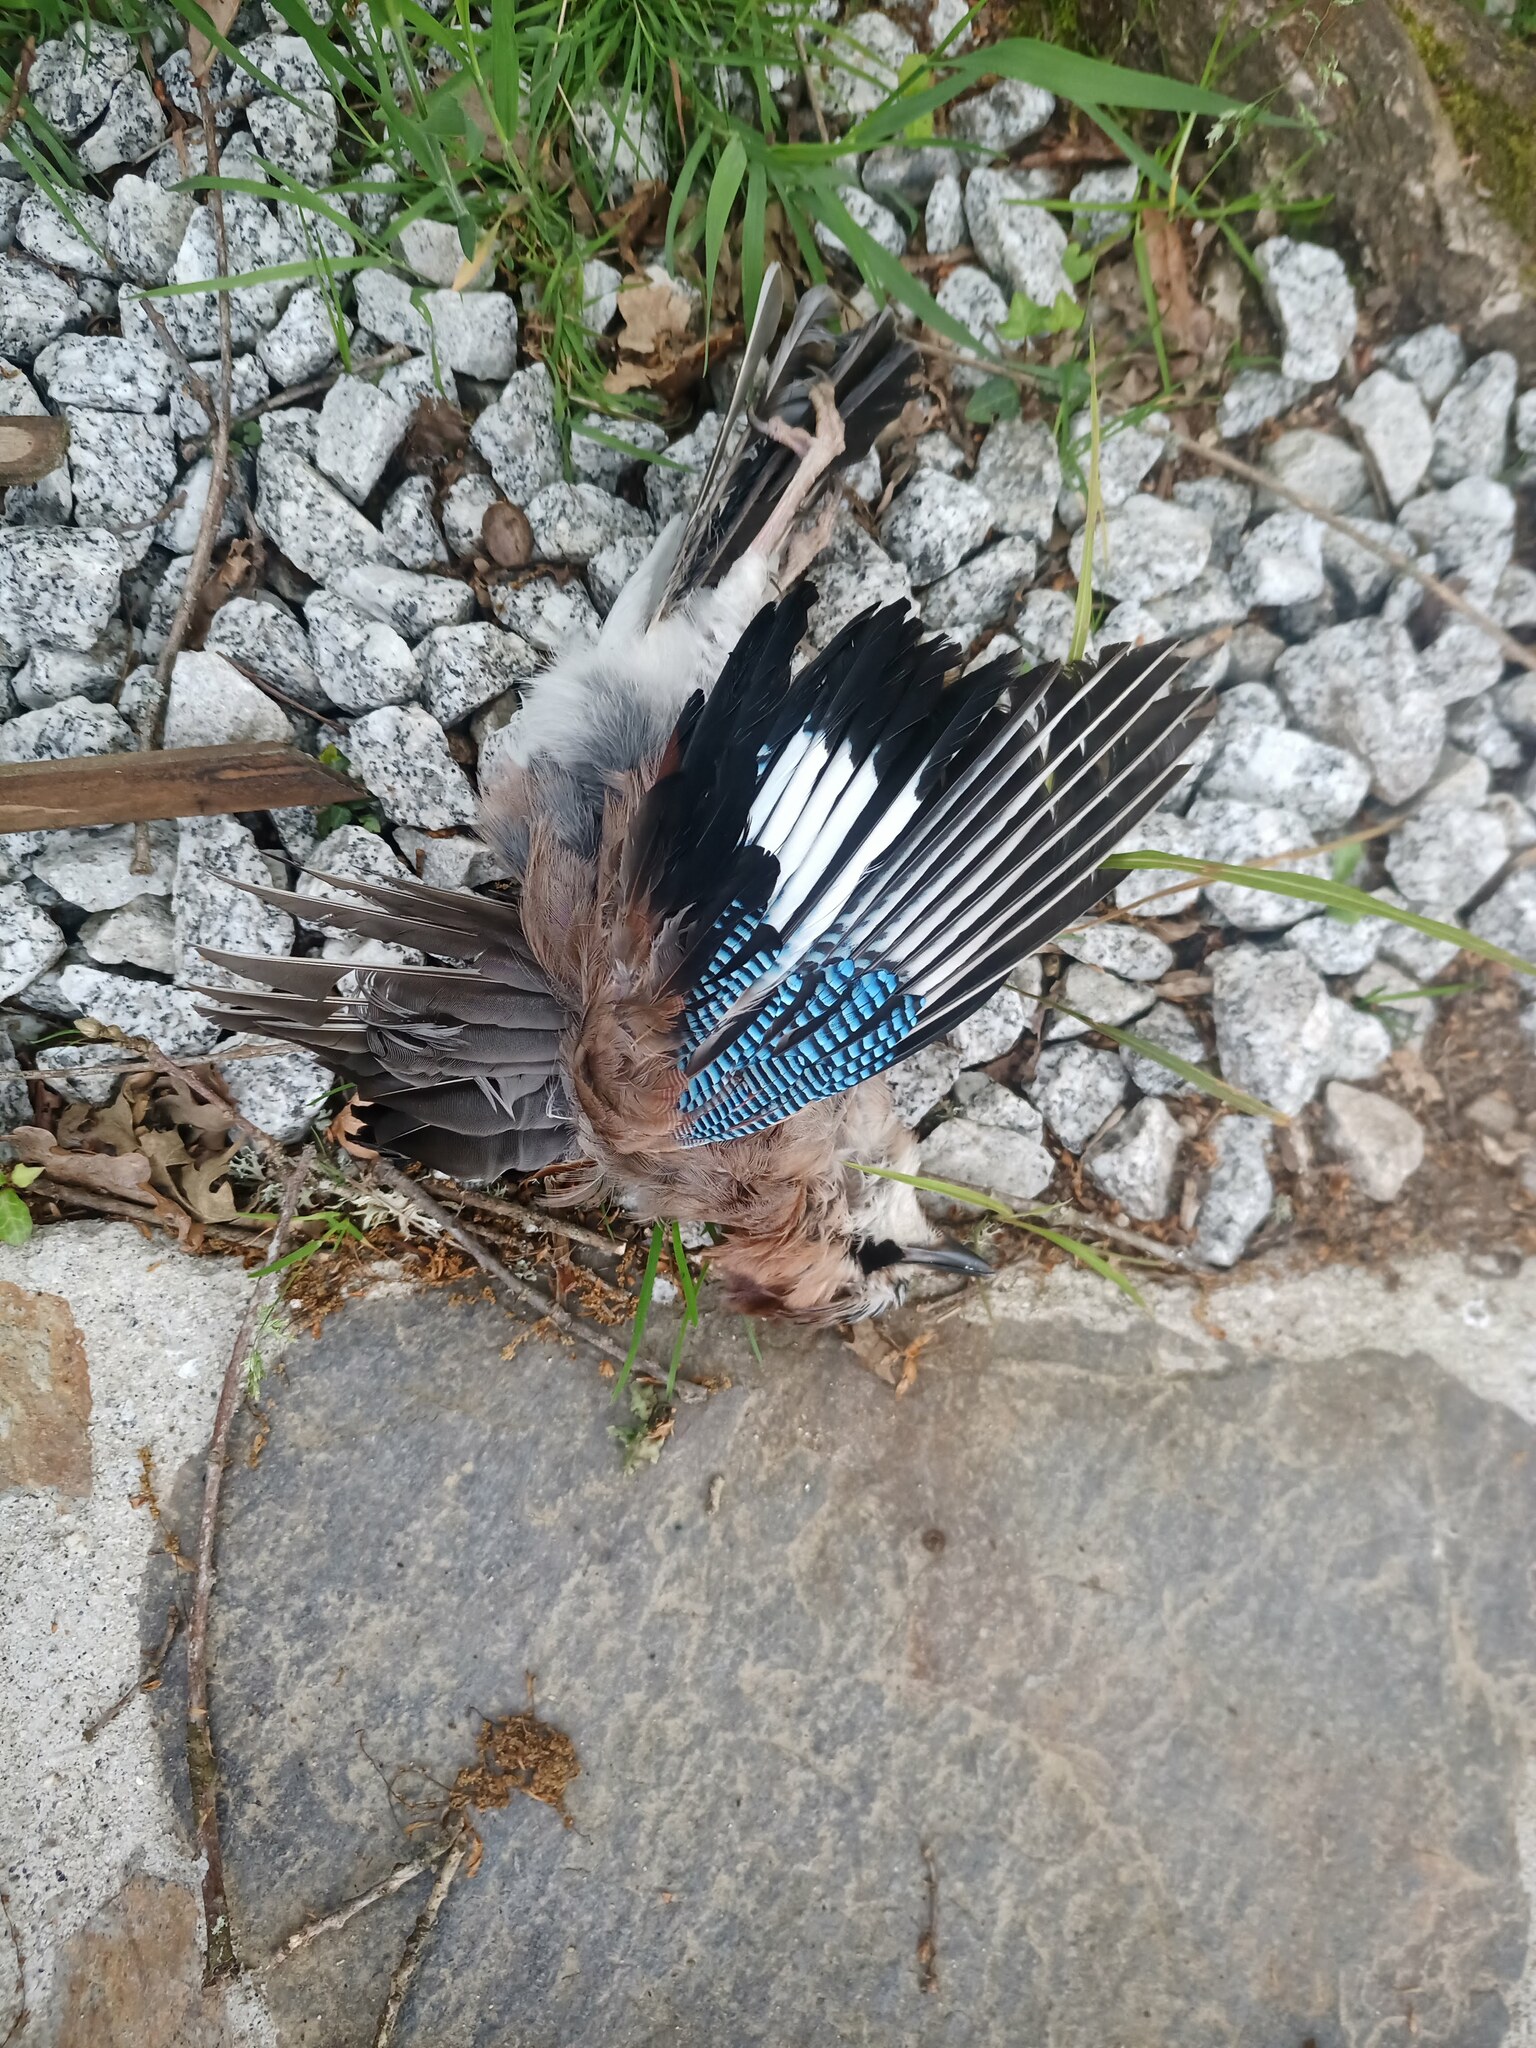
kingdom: Animalia
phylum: Chordata
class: Aves
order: Passeriformes
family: Corvidae
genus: Garrulus
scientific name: Garrulus glandarius
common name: Eurasian jay
